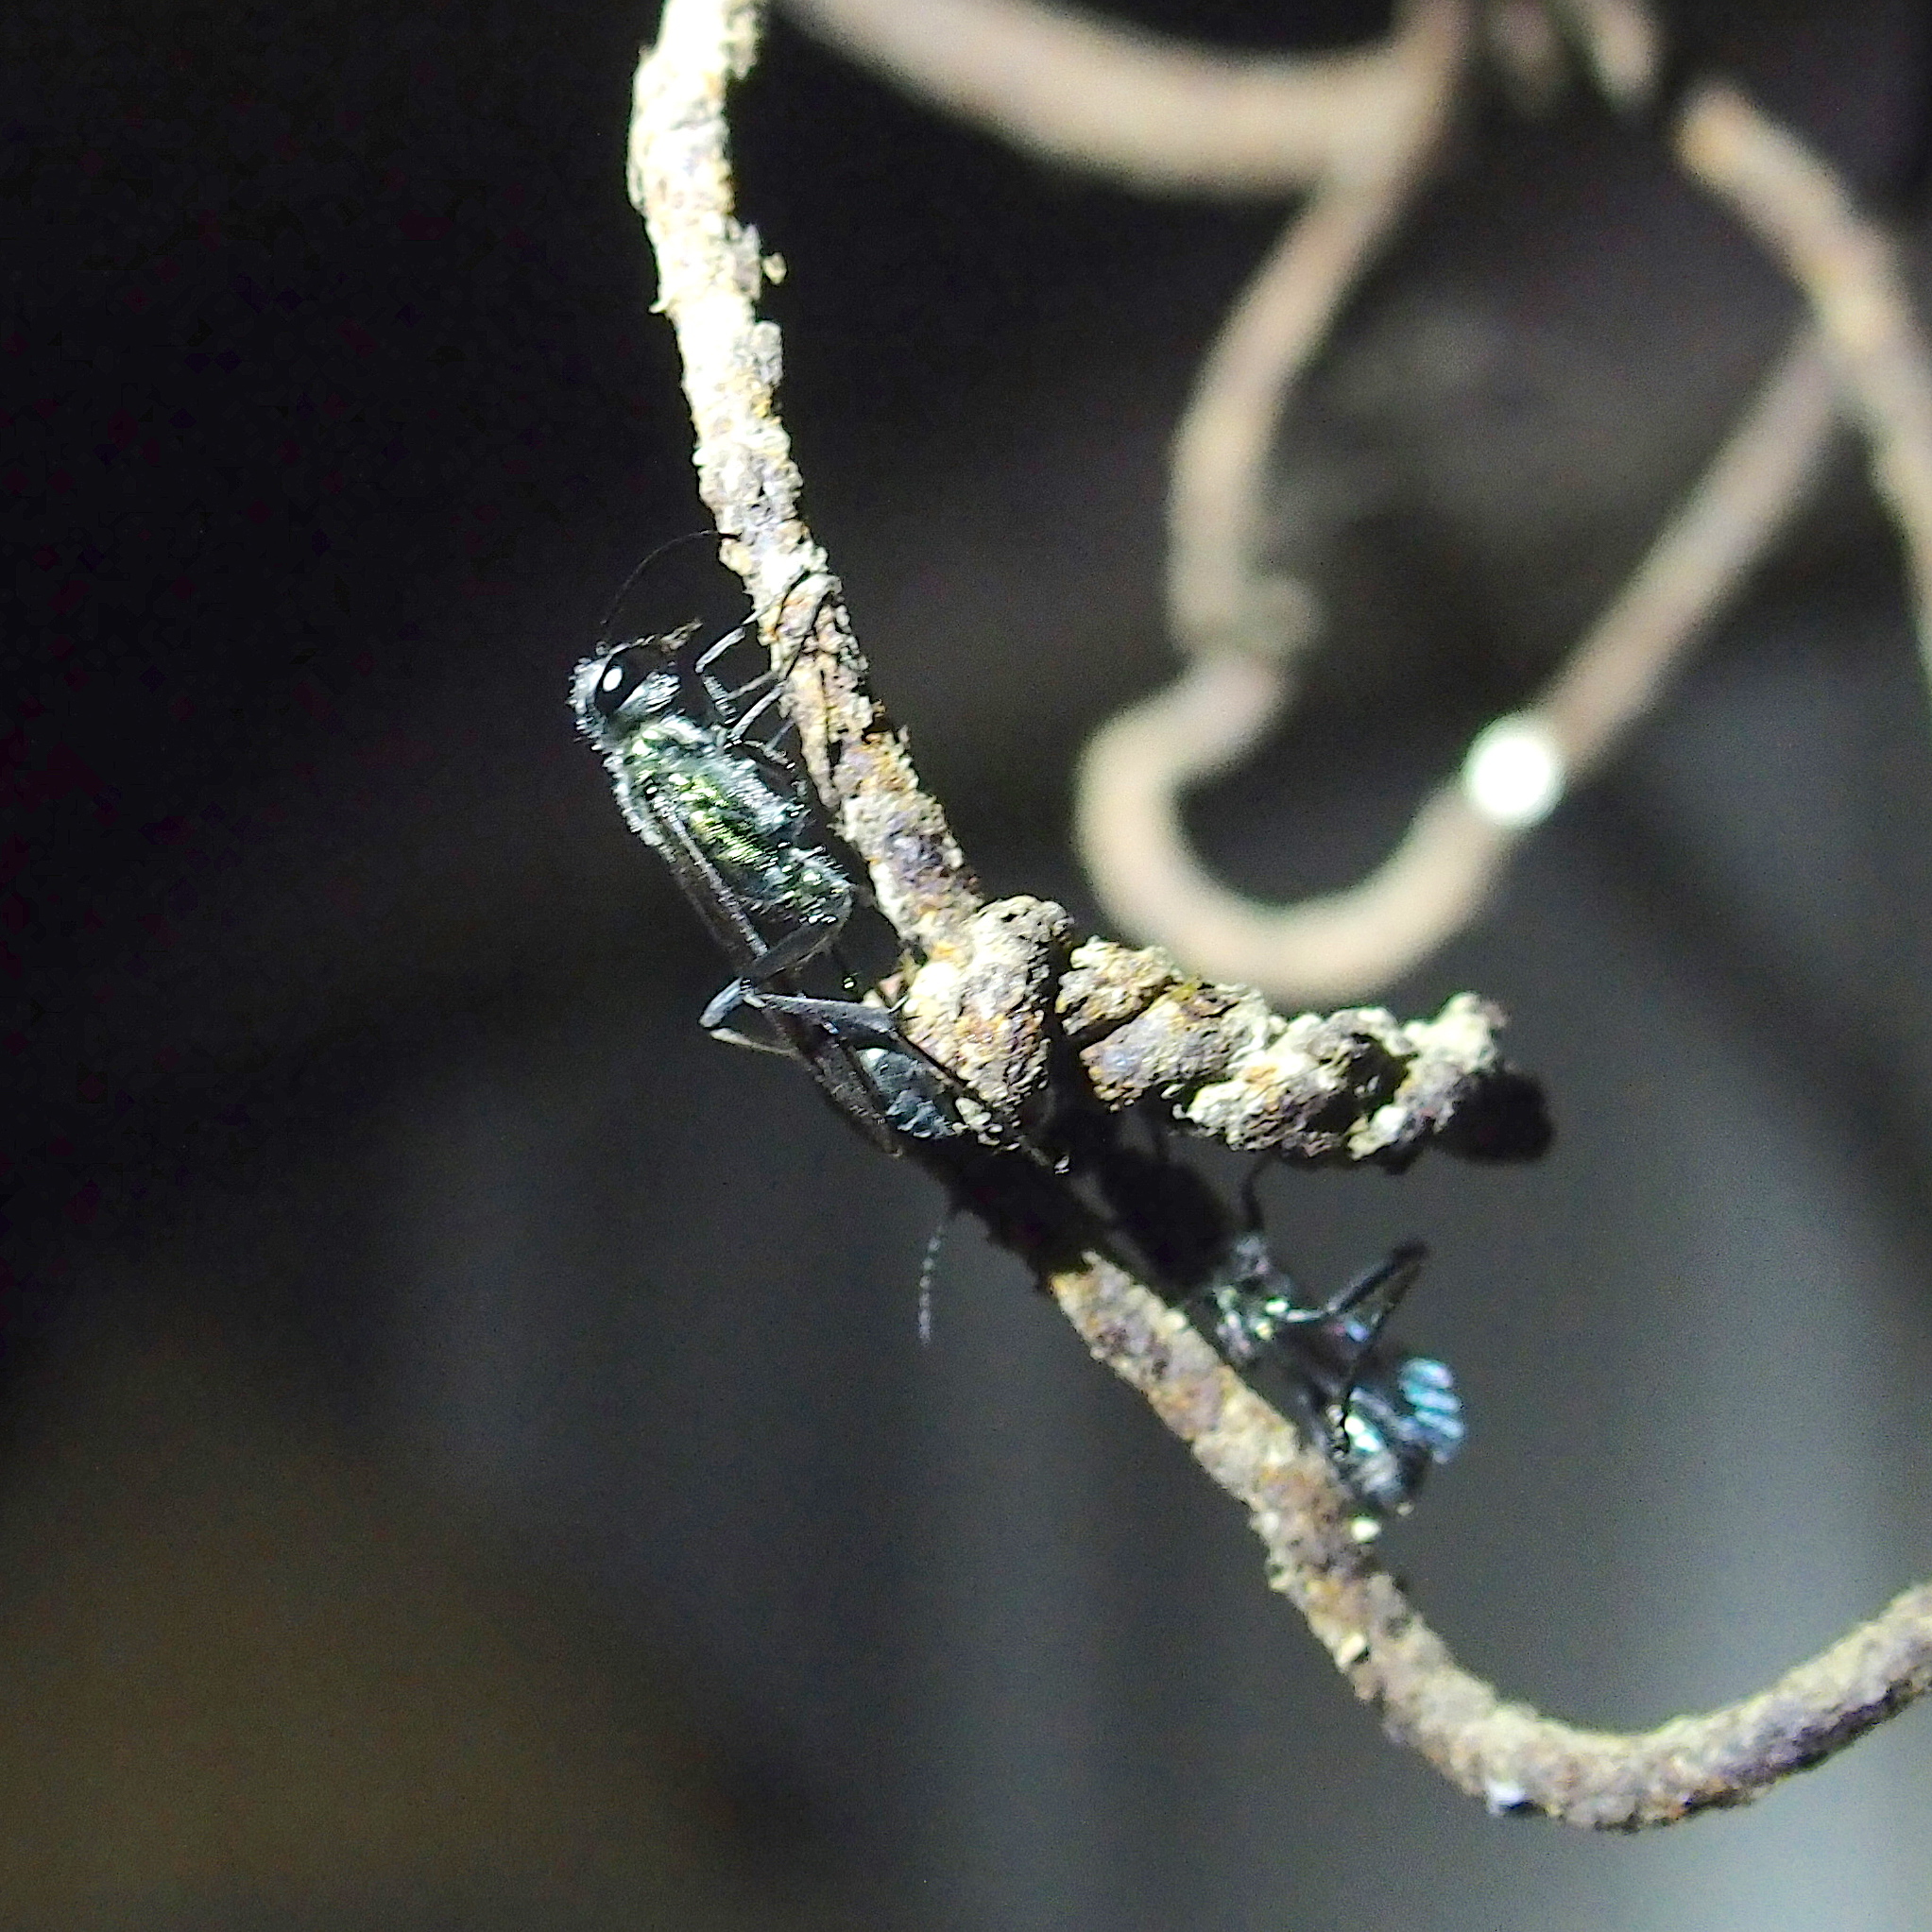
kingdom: Animalia
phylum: Arthropoda
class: Insecta
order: Hymenoptera
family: Sphecidae
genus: Chalybion
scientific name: Chalybion japonicum
